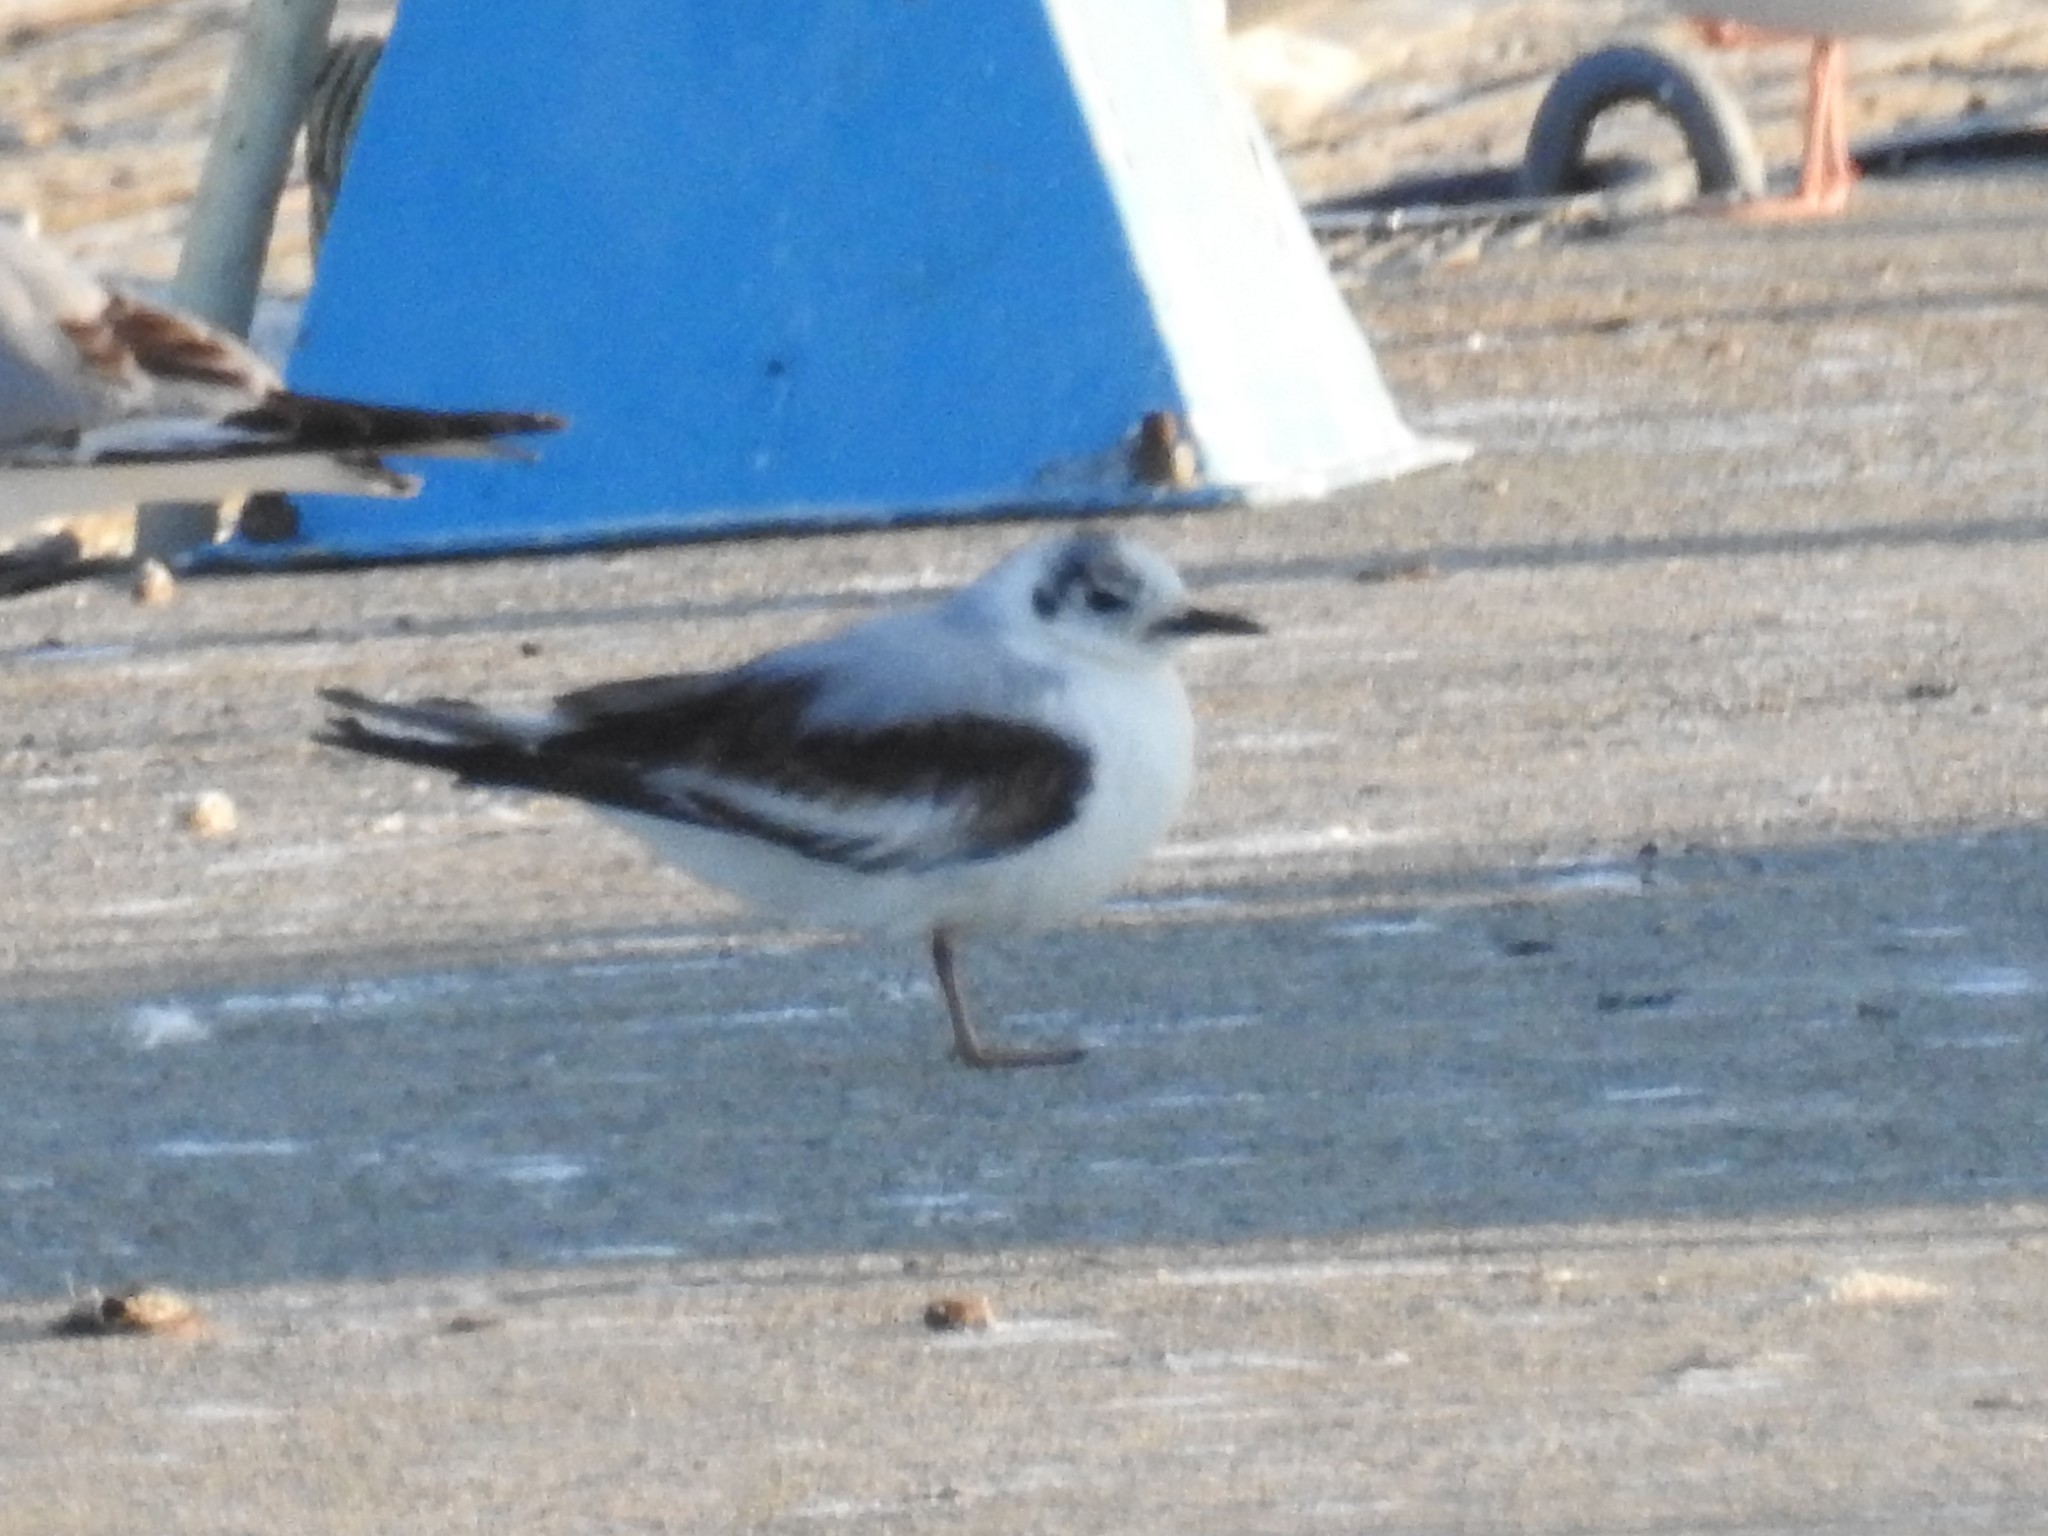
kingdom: Animalia
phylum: Chordata
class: Aves
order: Charadriiformes
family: Laridae
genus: Hydrocoloeus
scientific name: Hydrocoloeus minutus
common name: Little gull
